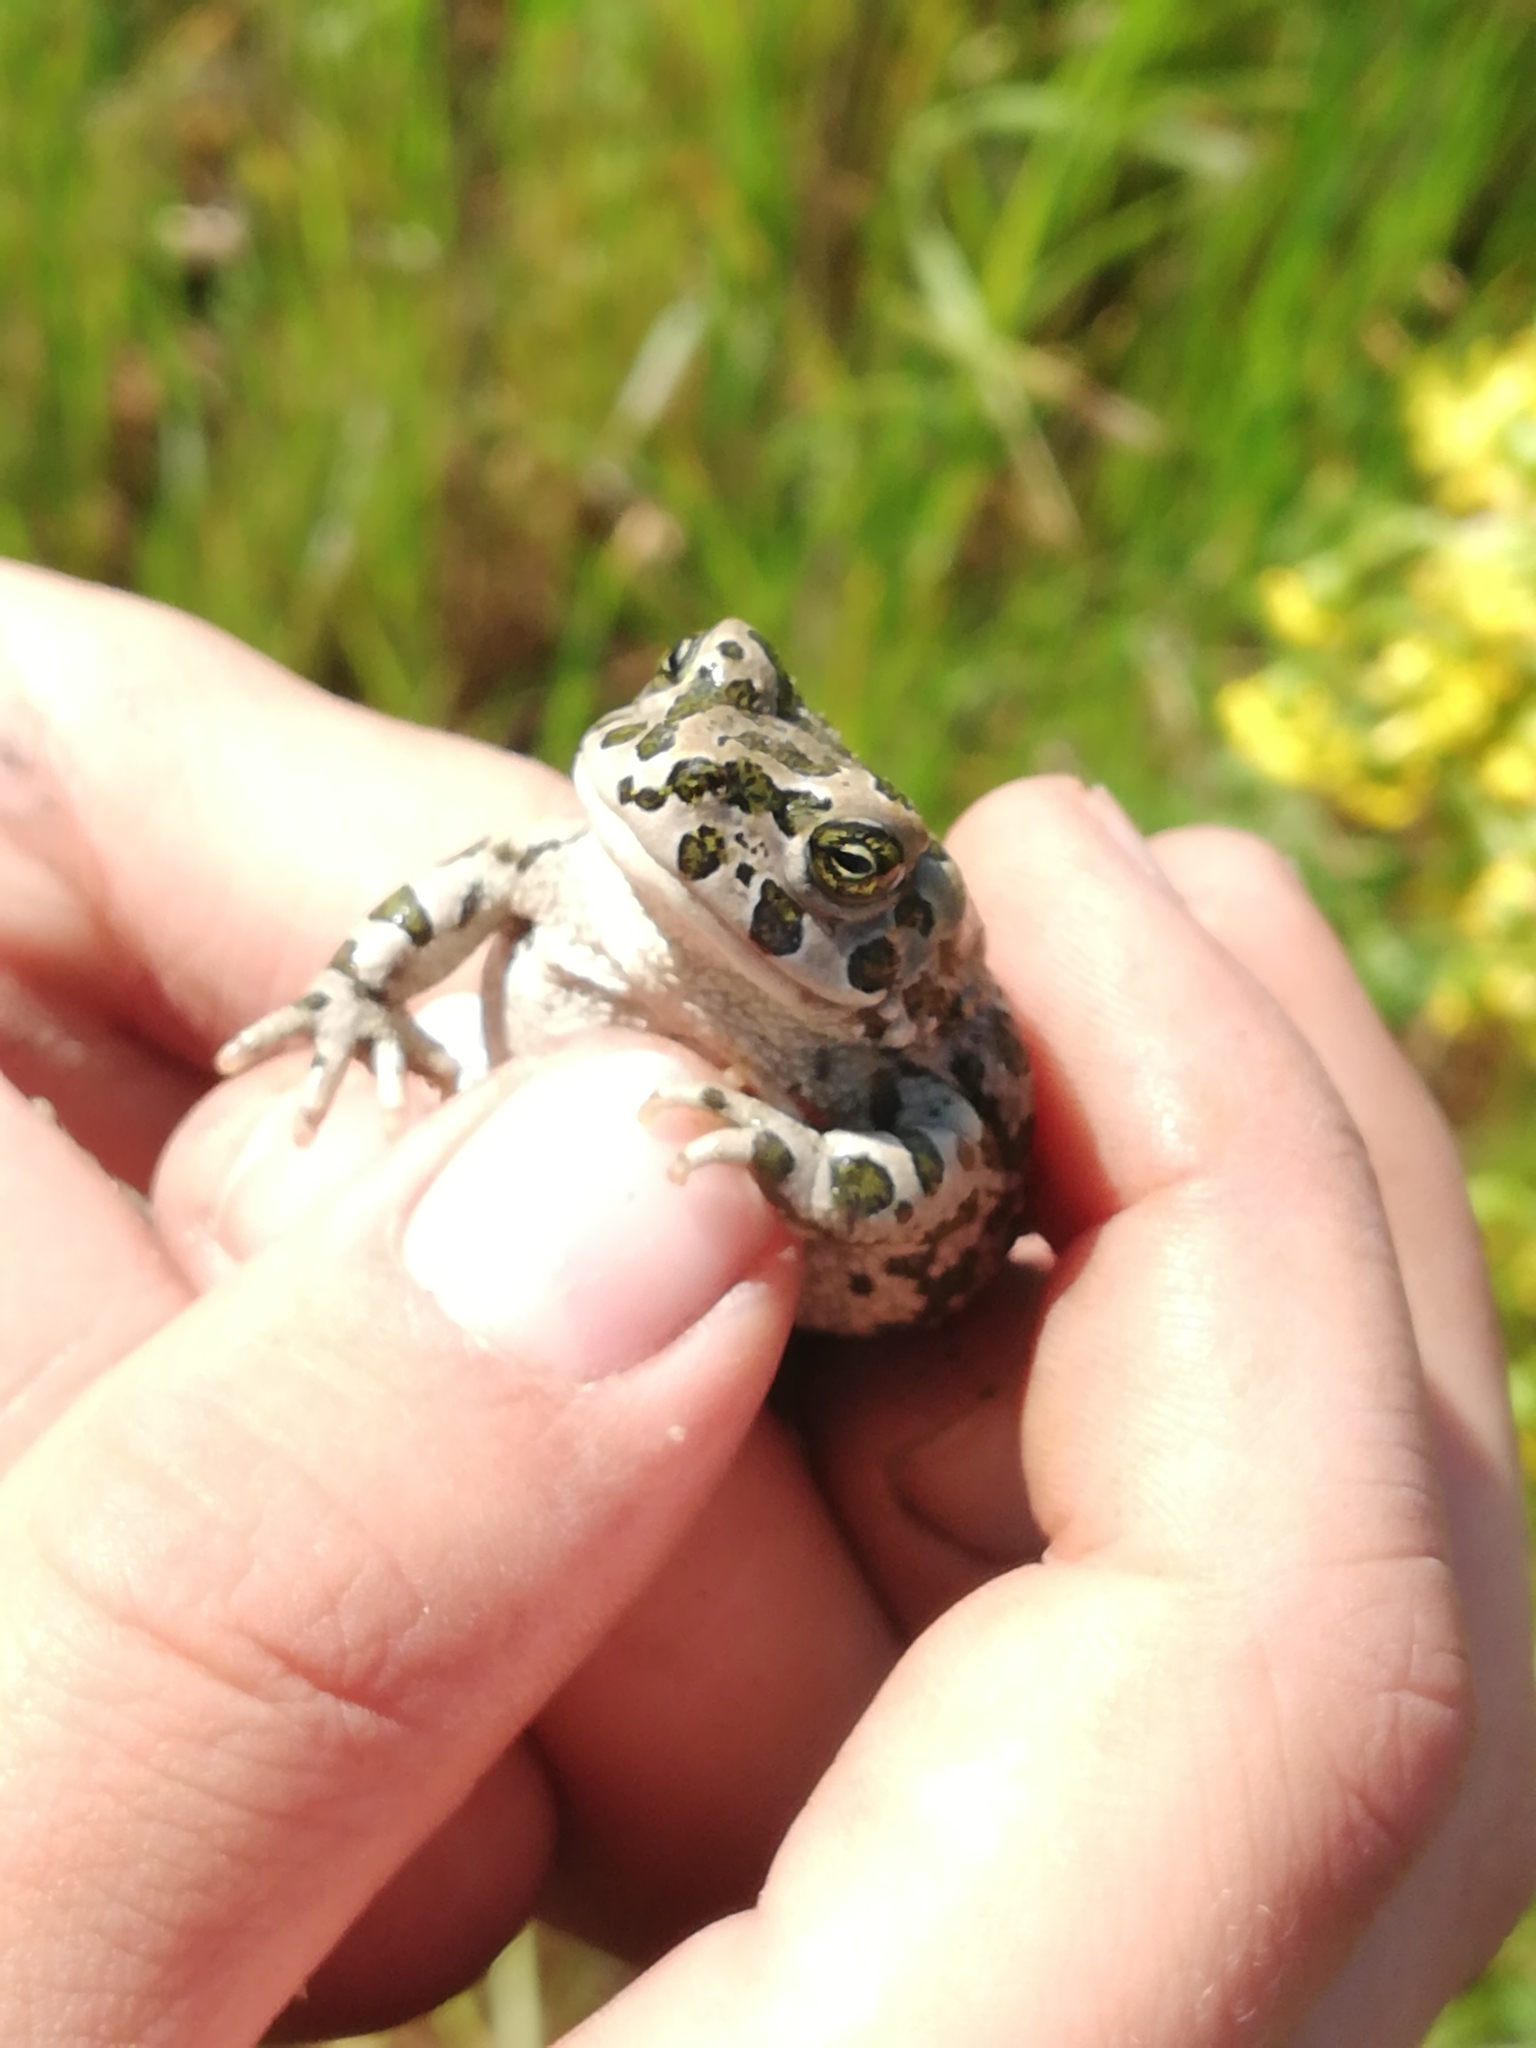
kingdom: Animalia
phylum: Chordata
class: Amphibia
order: Anura
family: Bufonidae
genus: Bufotes
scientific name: Bufotes viridis
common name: European green toad
